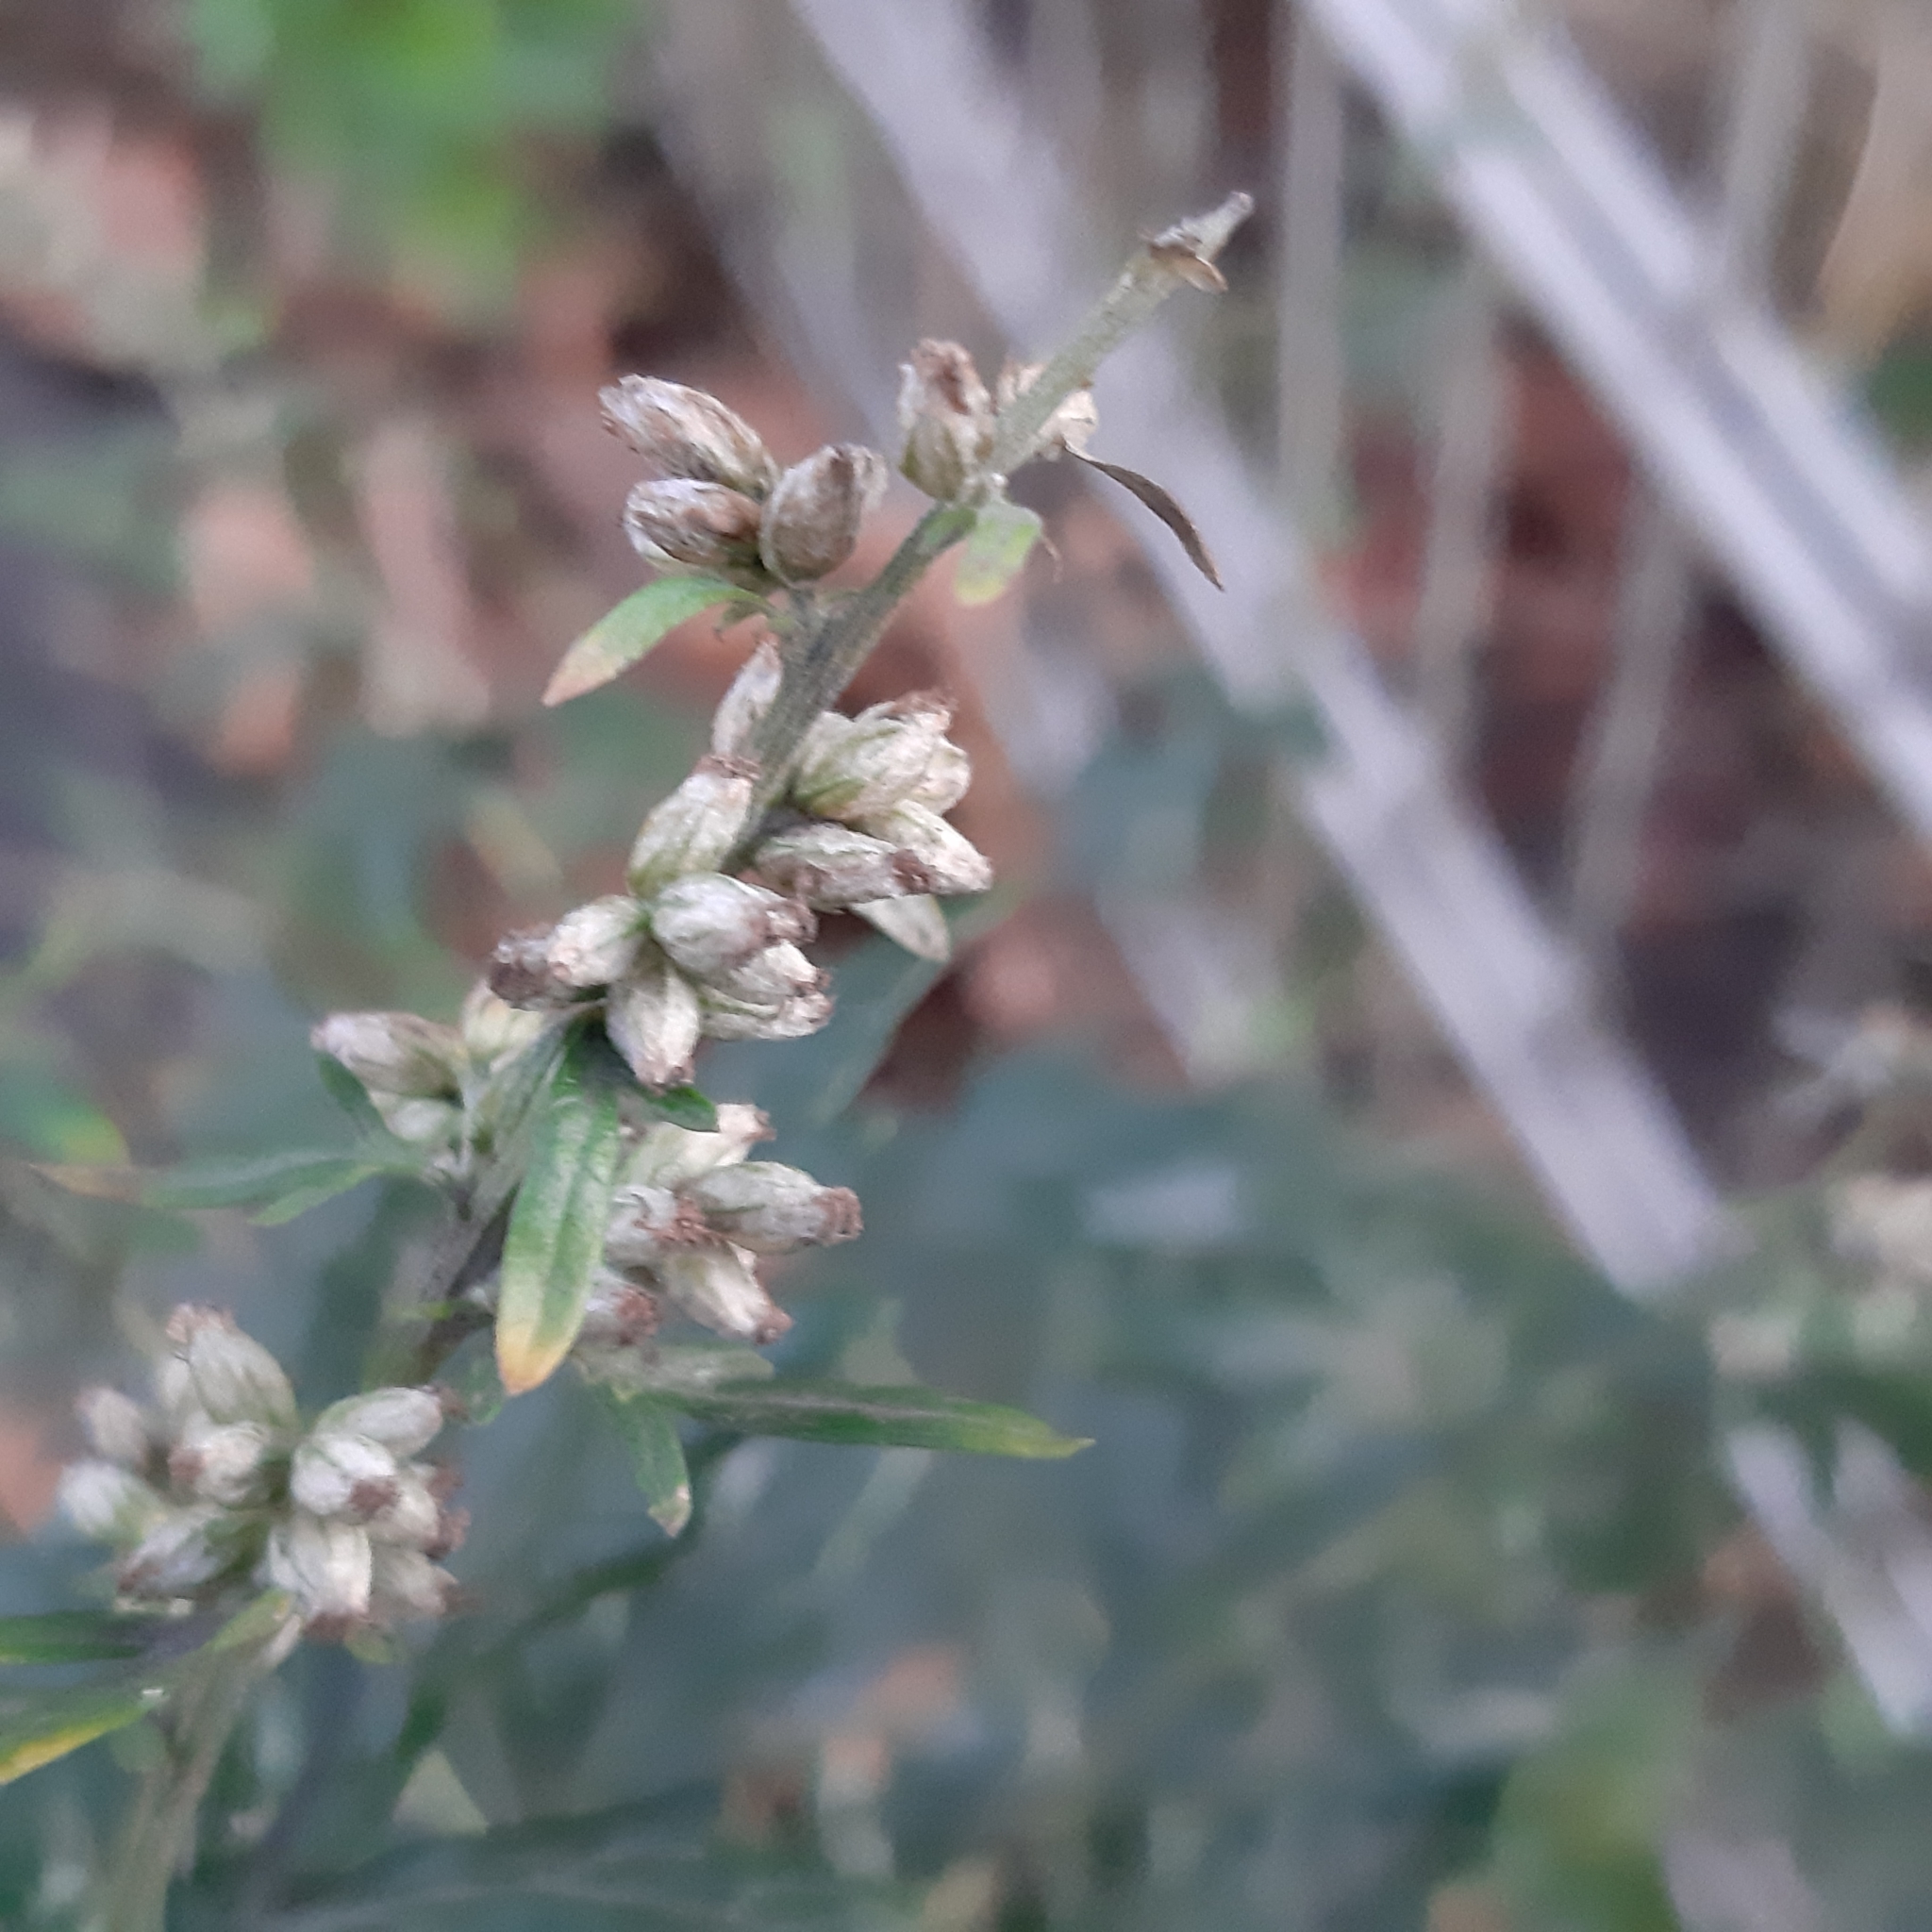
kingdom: Plantae
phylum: Tracheophyta
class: Magnoliopsida
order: Asterales
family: Asteraceae
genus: Artemisia
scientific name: Artemisia vulgaris
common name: Mugwort
